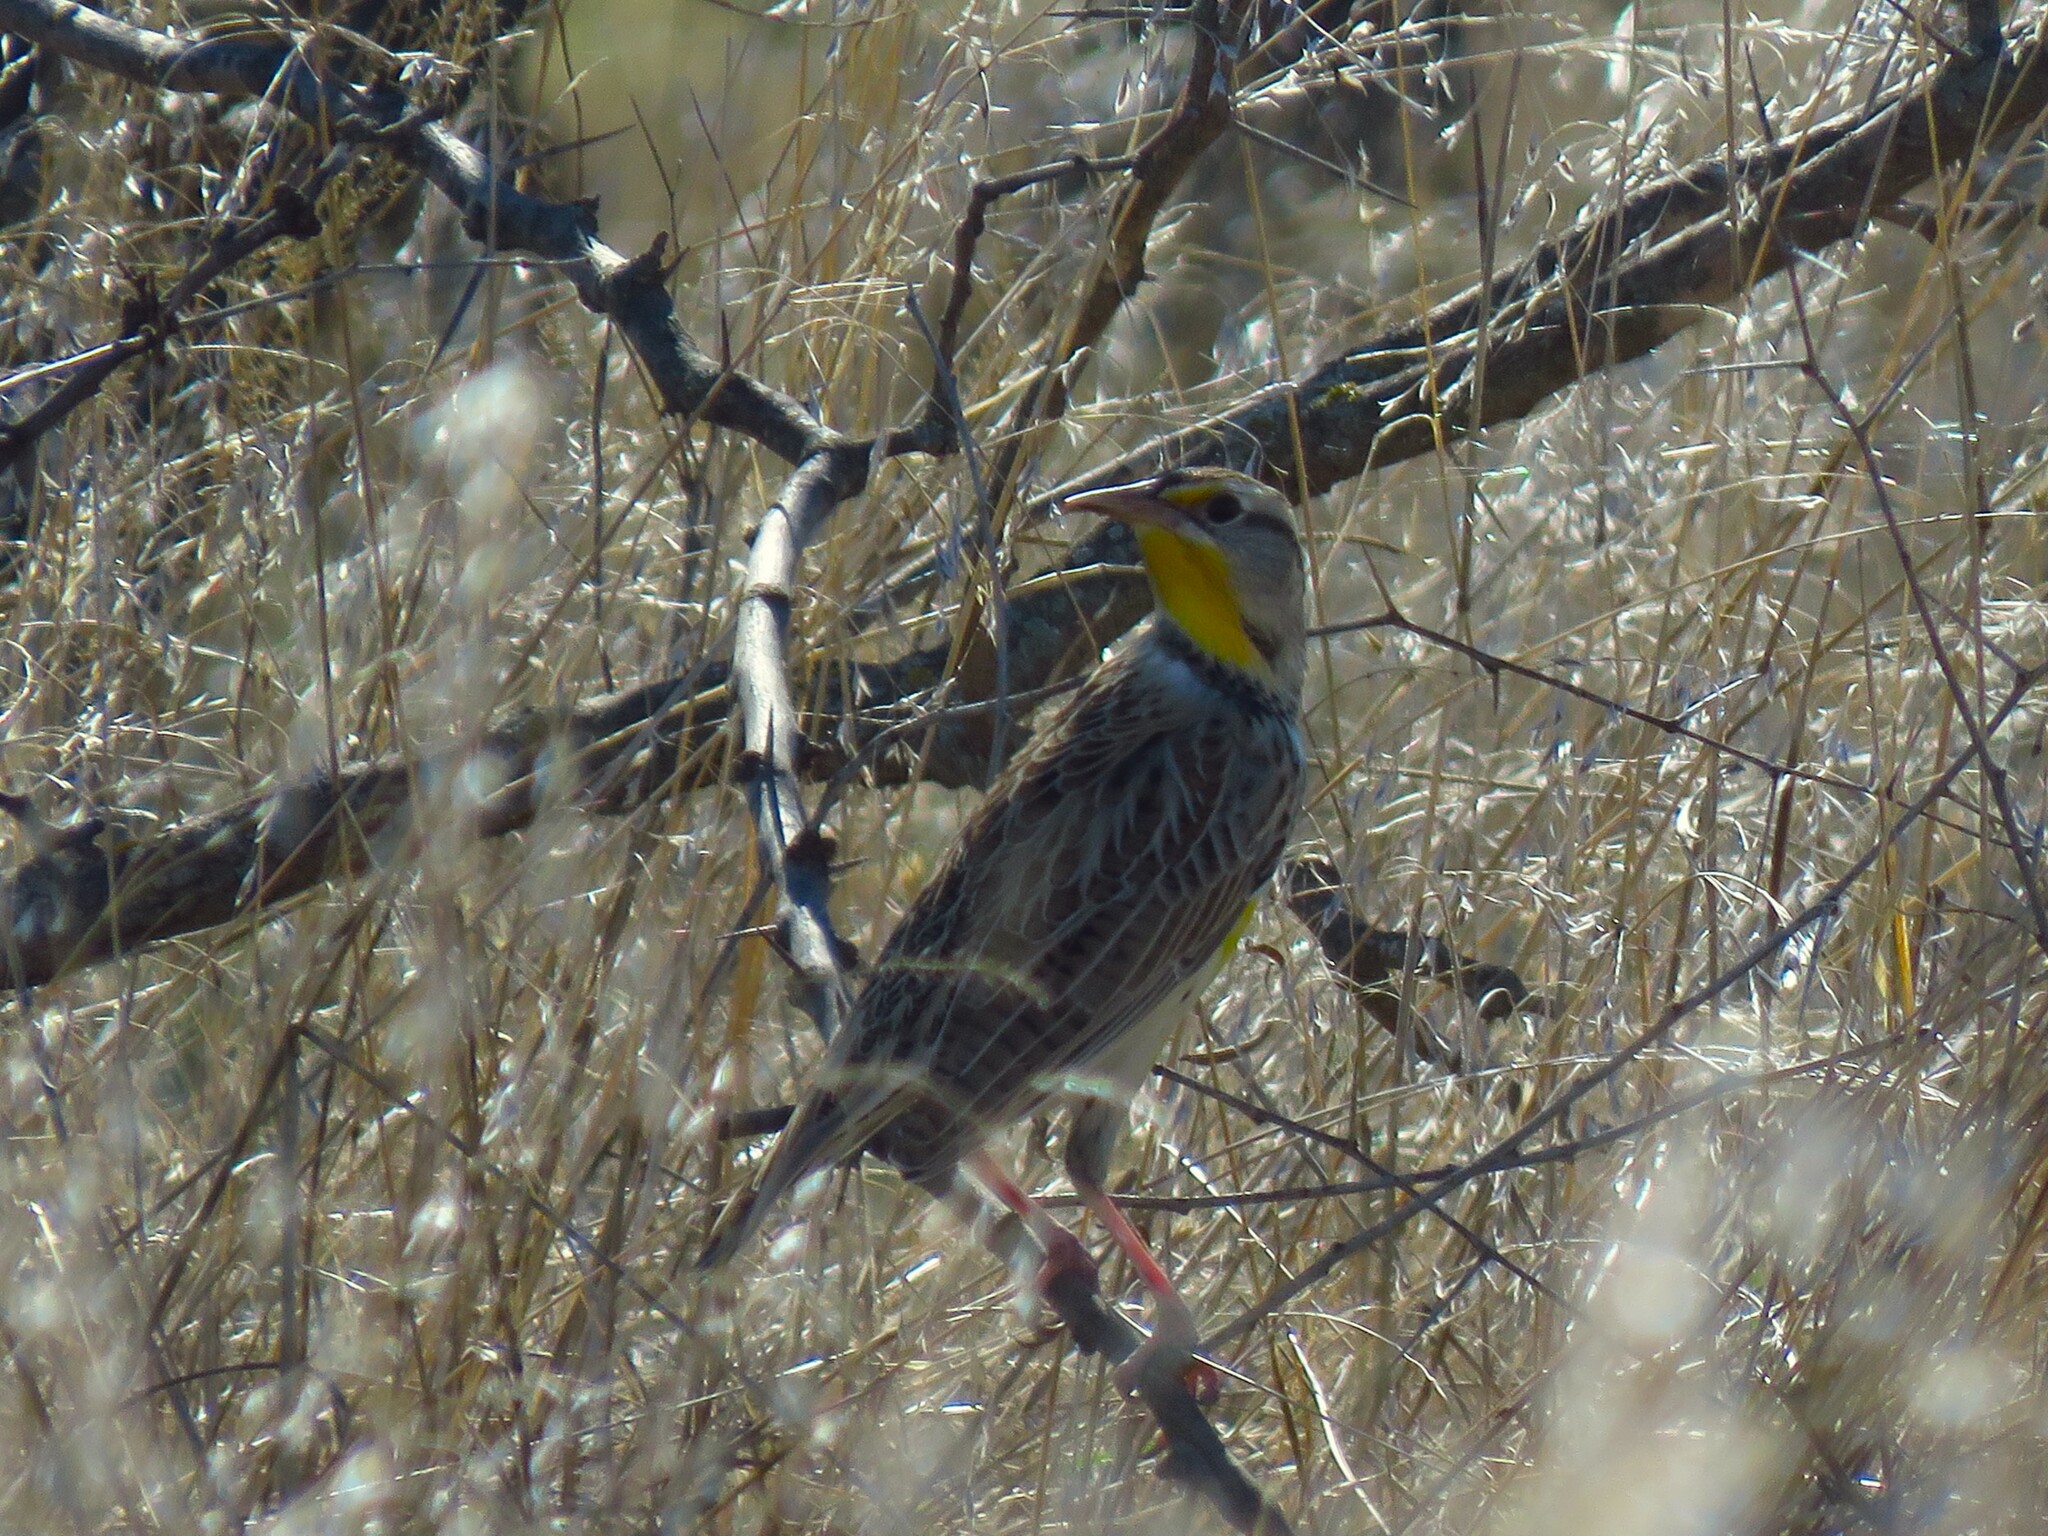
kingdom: Animalia
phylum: Chordata
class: Aves
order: Passeriformes
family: Icteridae
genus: Sturnella
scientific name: Sturnella neglecta
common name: Western meadowlark
